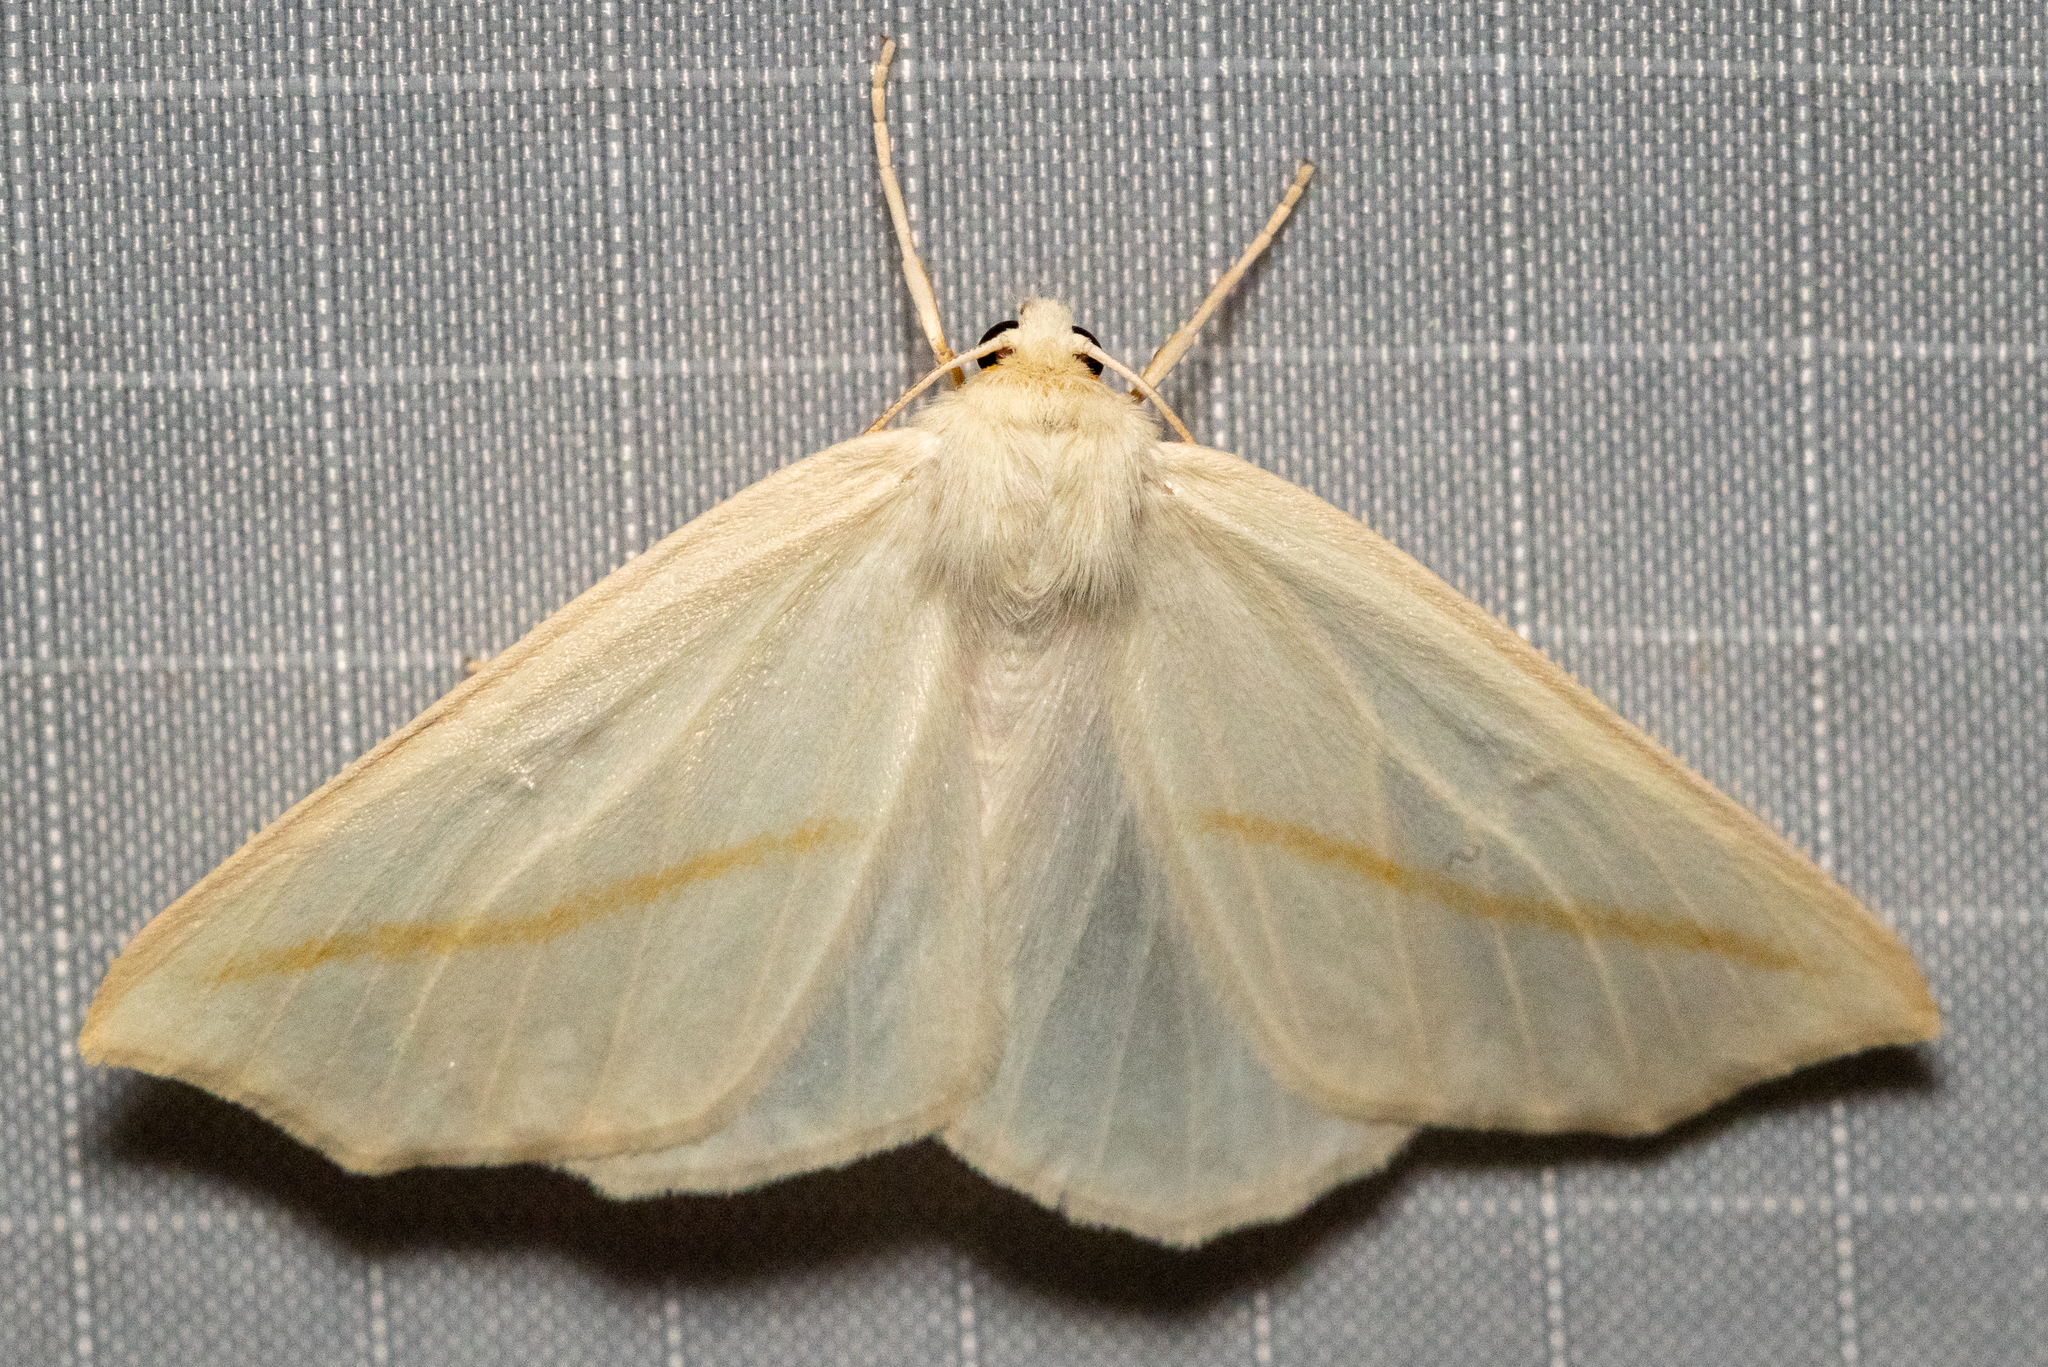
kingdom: Animalia
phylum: Arthropoda
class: Insecta
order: Lepidoptera
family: Geometridae
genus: Tetracis
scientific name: Tetracis cachexiata
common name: White slant-line
